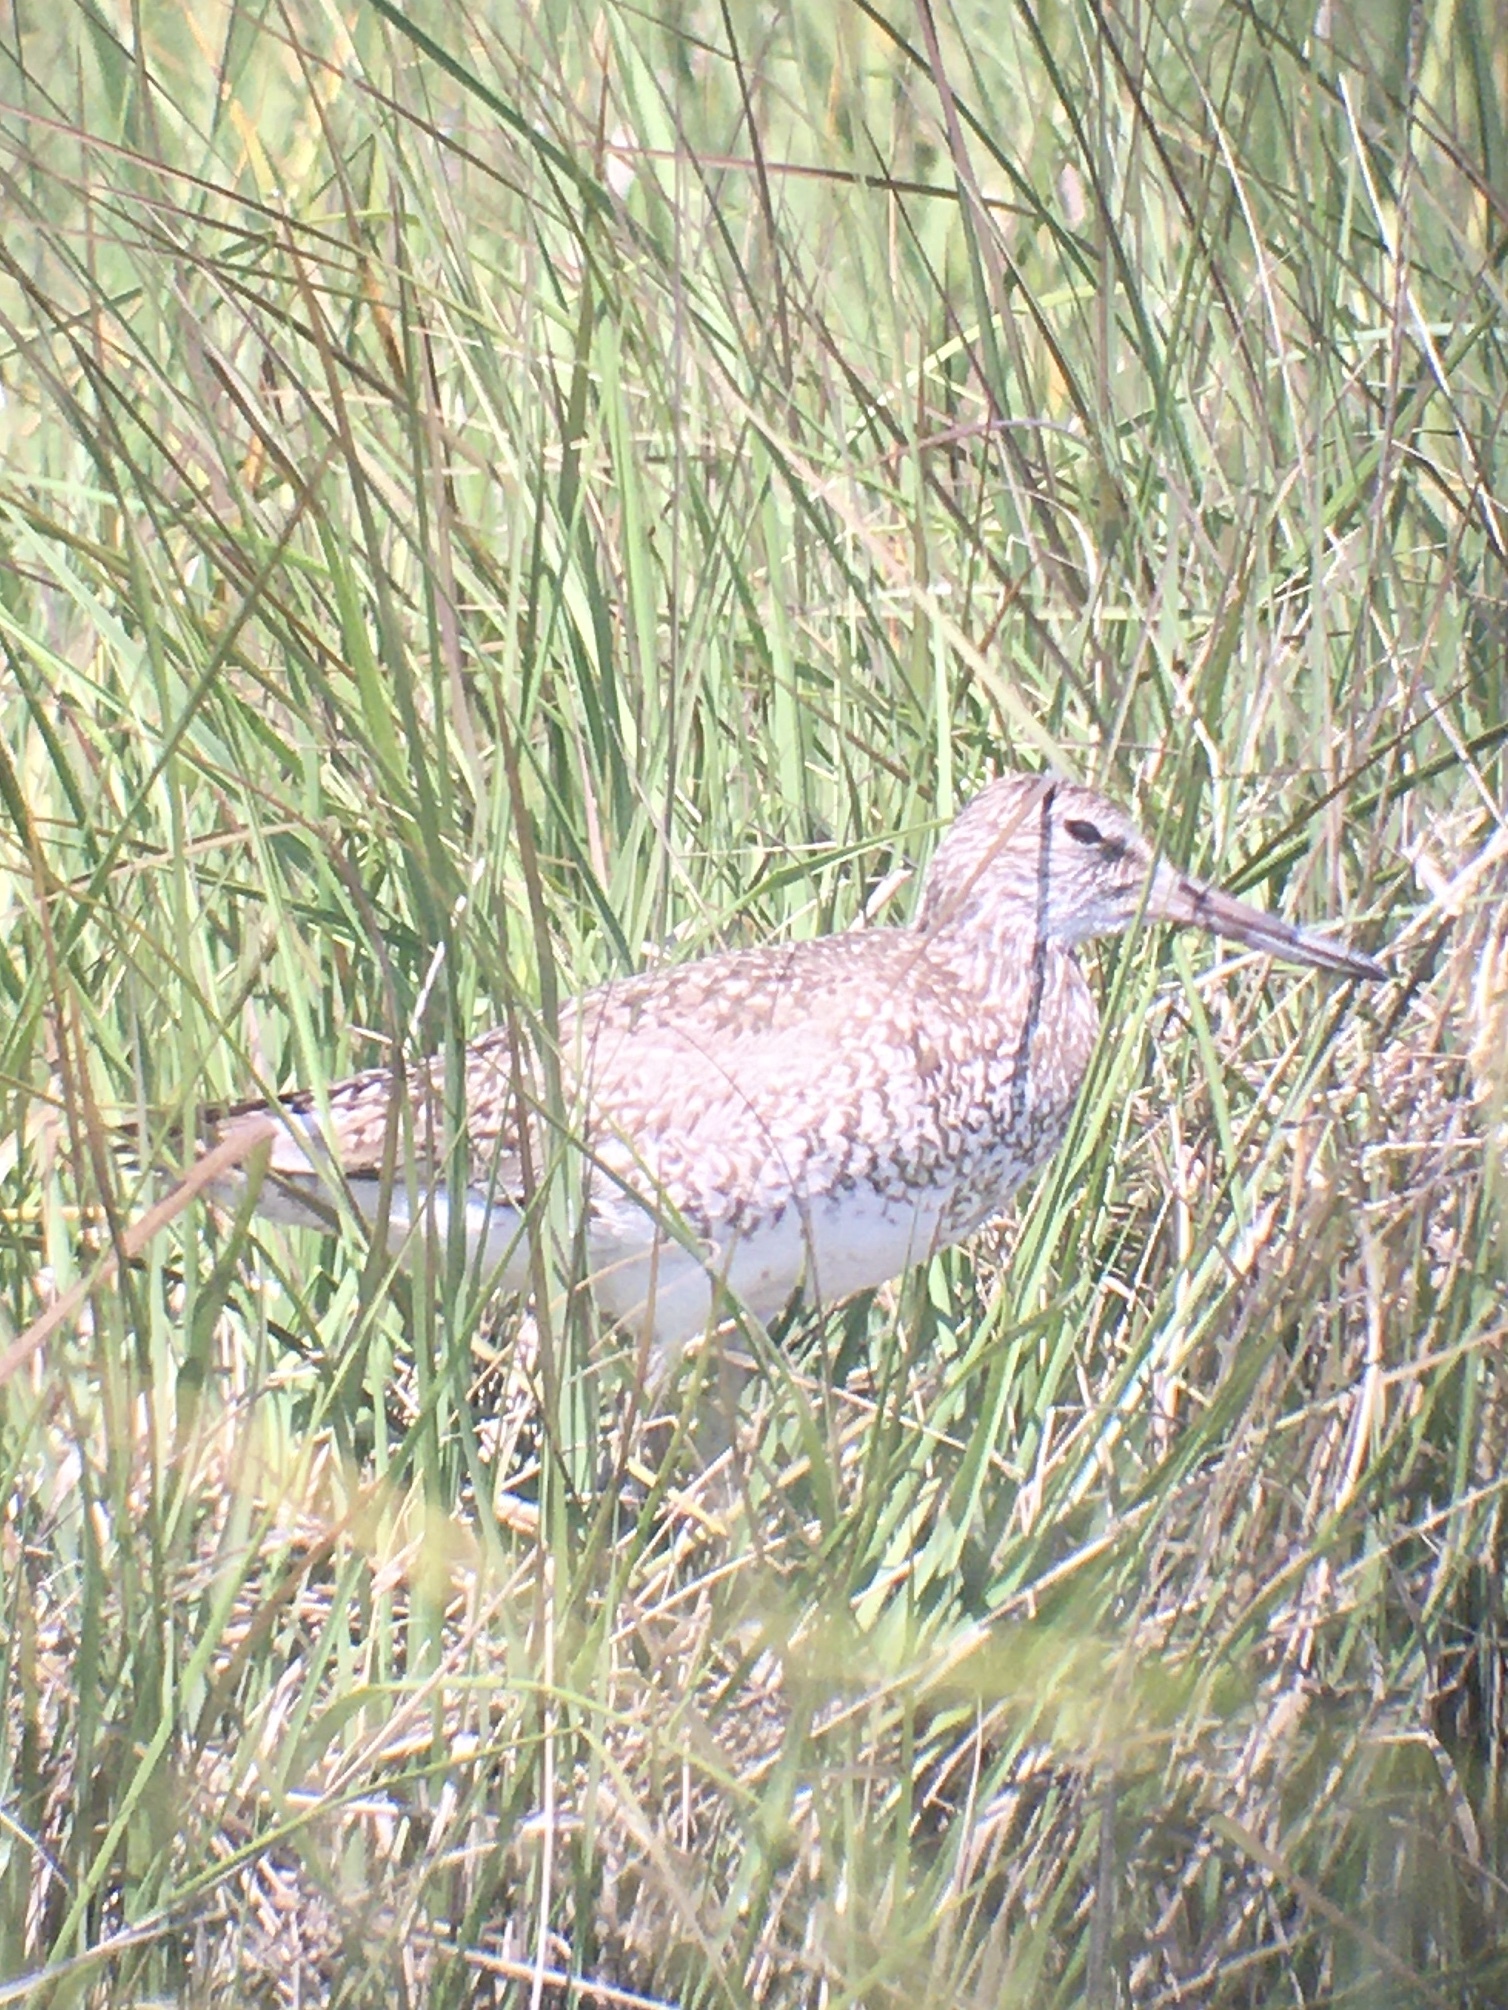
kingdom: Animalia
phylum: Chordata
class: Aves
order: Charadriiformes
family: Scolopacidae
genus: Tringa
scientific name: Tringa semipalmata
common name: Willet
